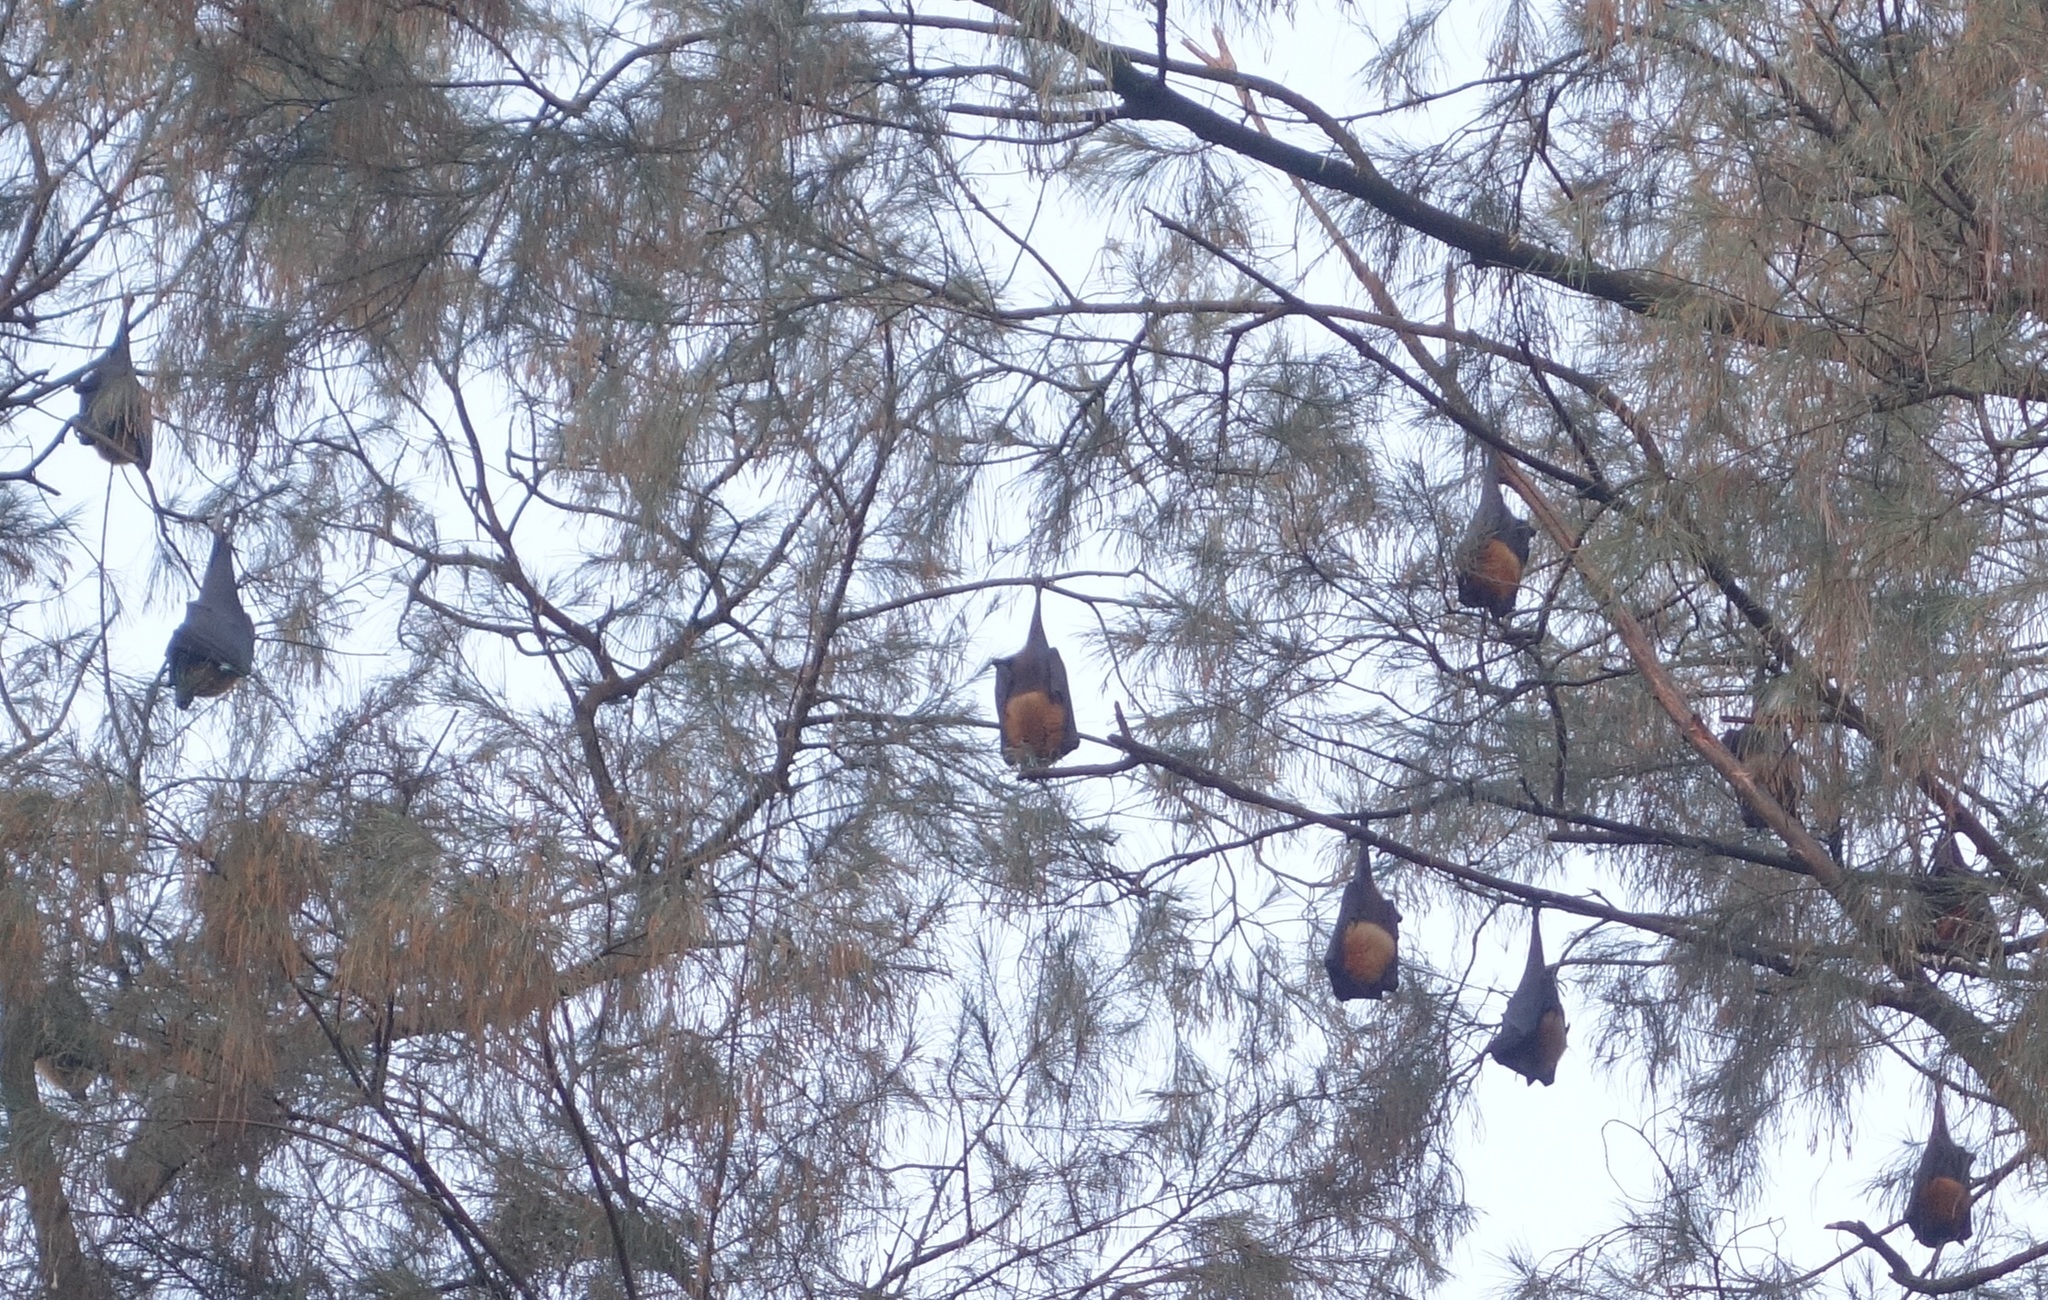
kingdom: Animalia
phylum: Chordata
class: Mammalia
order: Chiroptera
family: Pteropodidae
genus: Pteropus
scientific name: Pteropus vampyrus
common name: Large flying fox
